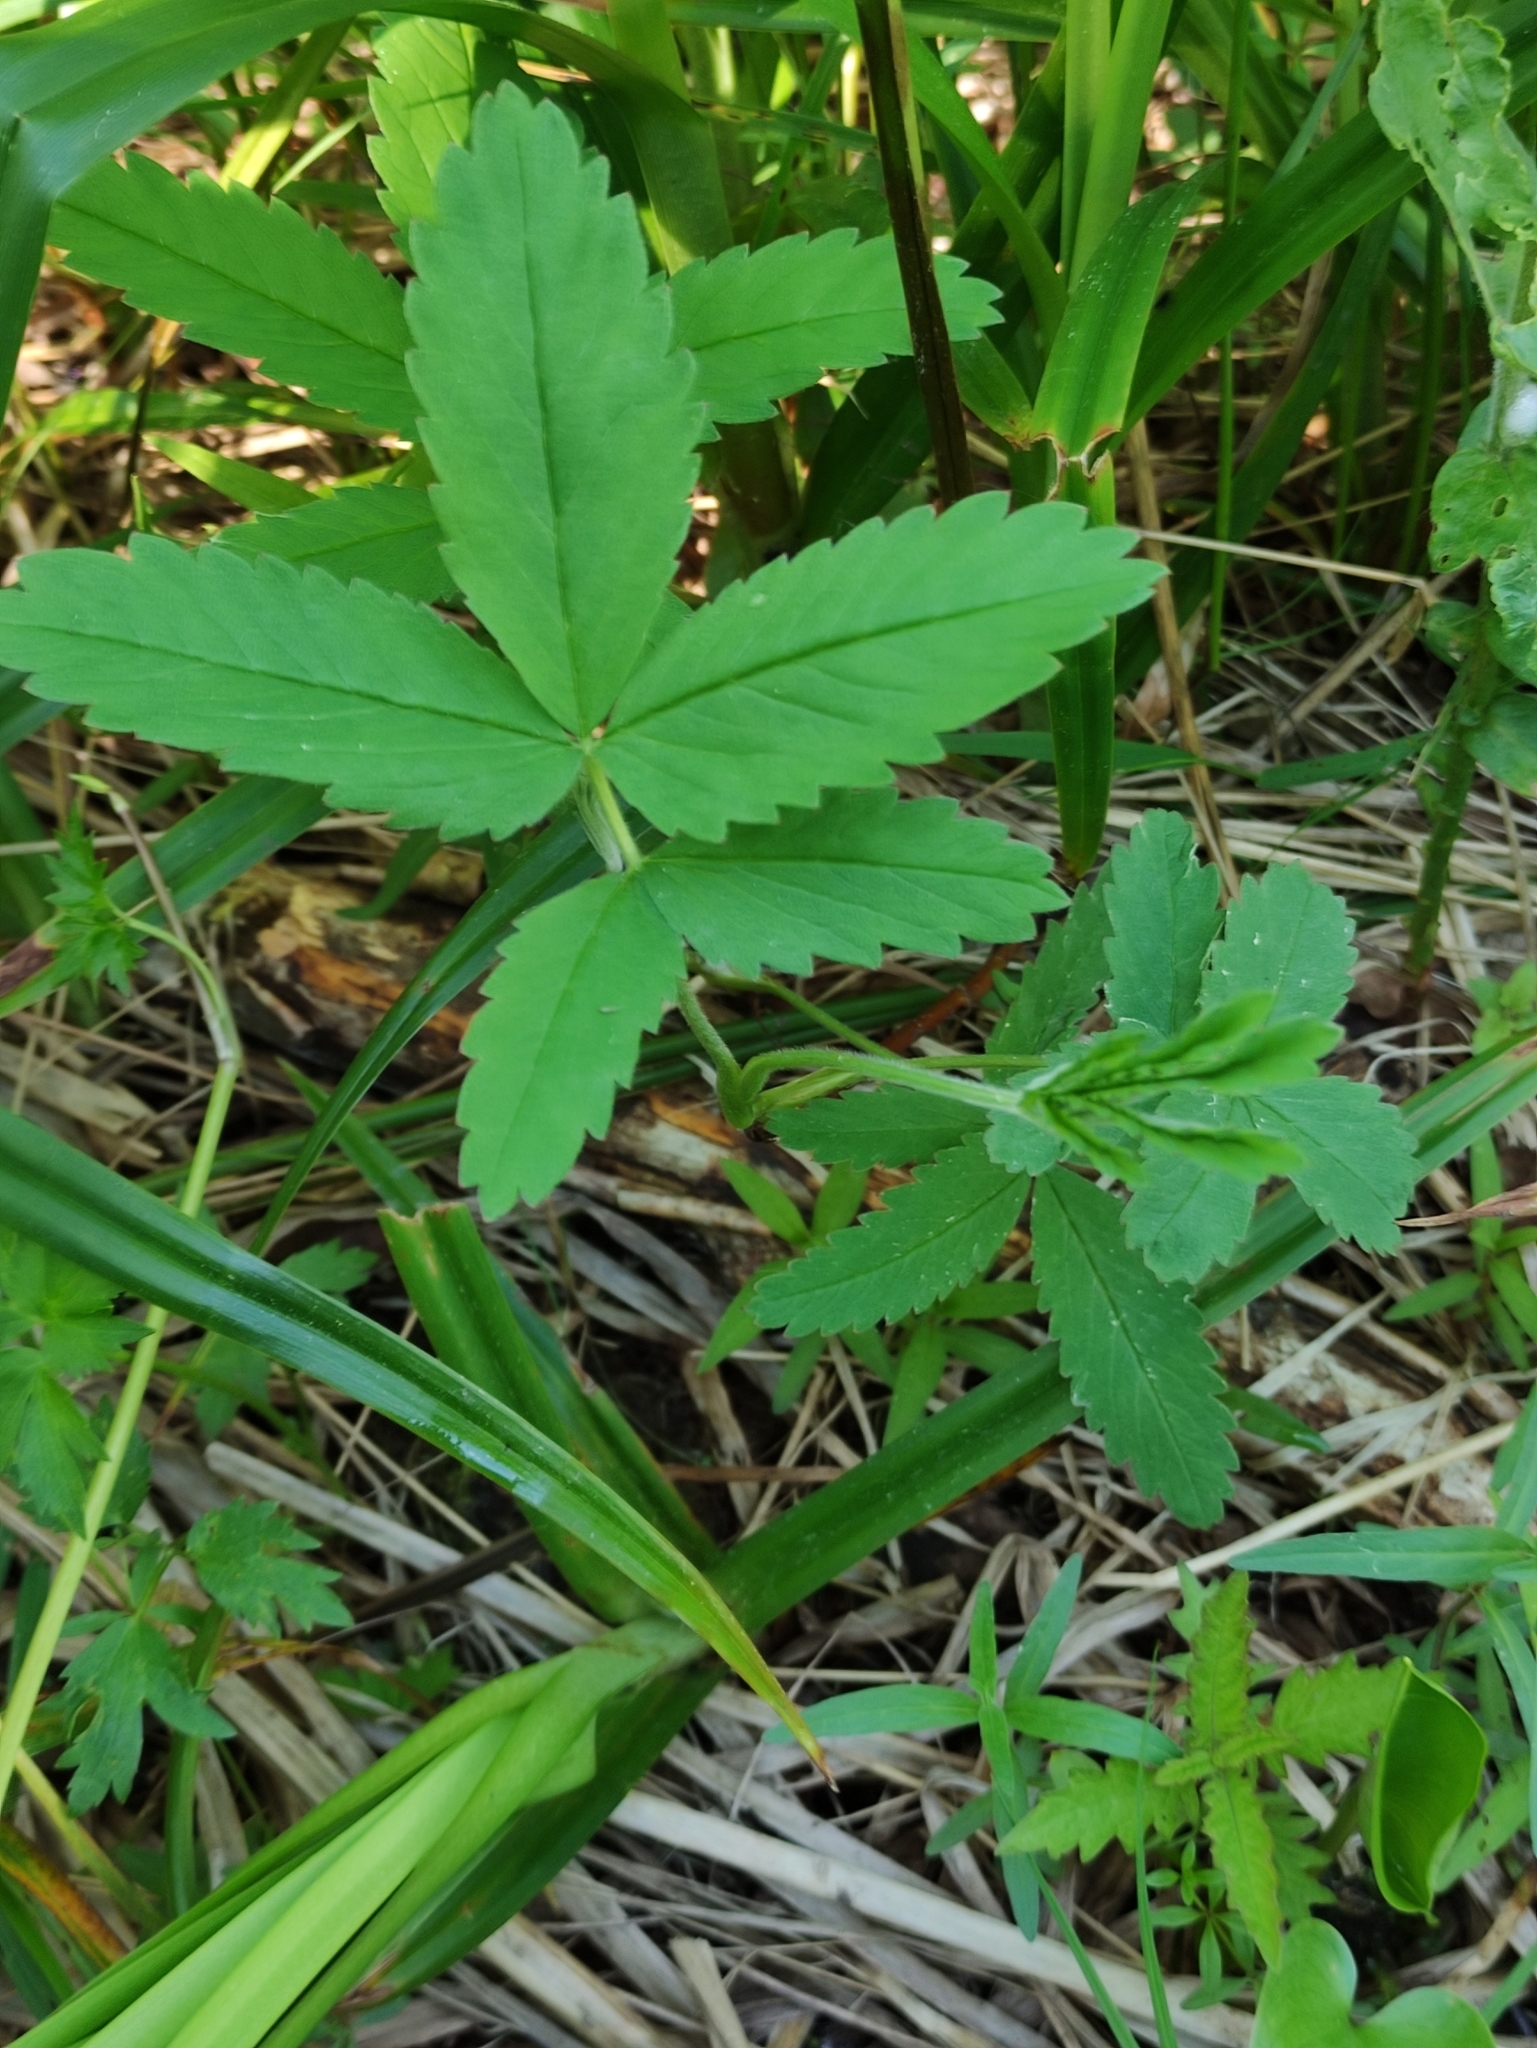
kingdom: Plantae
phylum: Tracheophyta
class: Magnoliopsida
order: Rosales
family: Rosaceae
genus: Comarum
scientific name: Comarum palustre
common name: Marsh cinquefoil
